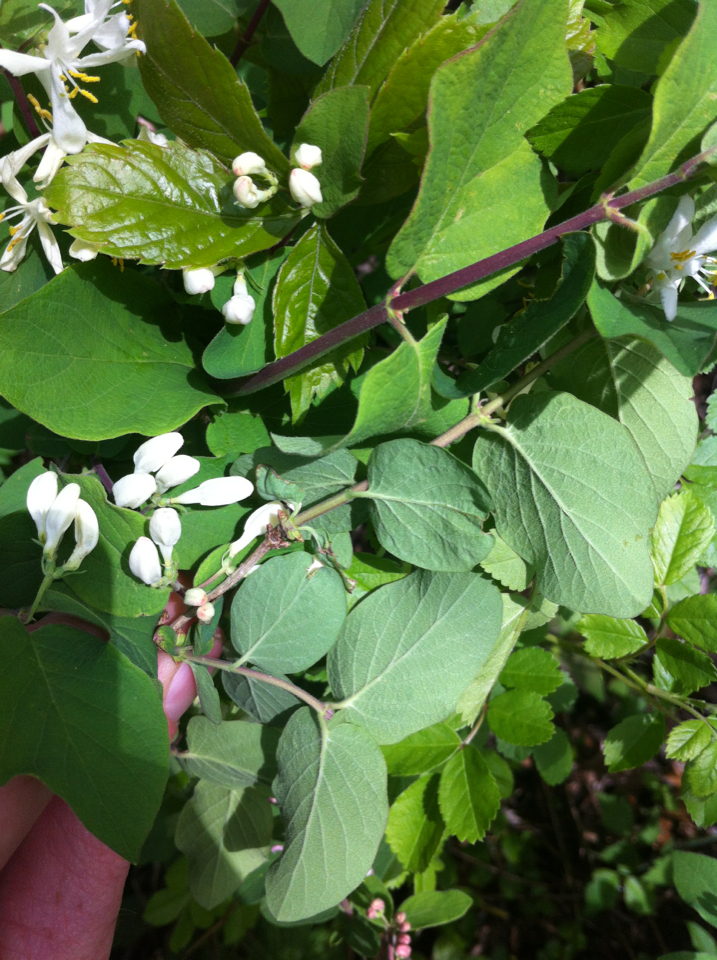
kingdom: Plantae
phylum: Tracheophyta
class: Magnoliopsida
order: Dipsacales
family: Caprifoliaceae
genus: Lonicera
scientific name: Lonicera tatarica
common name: Tatarian honeysuckle
